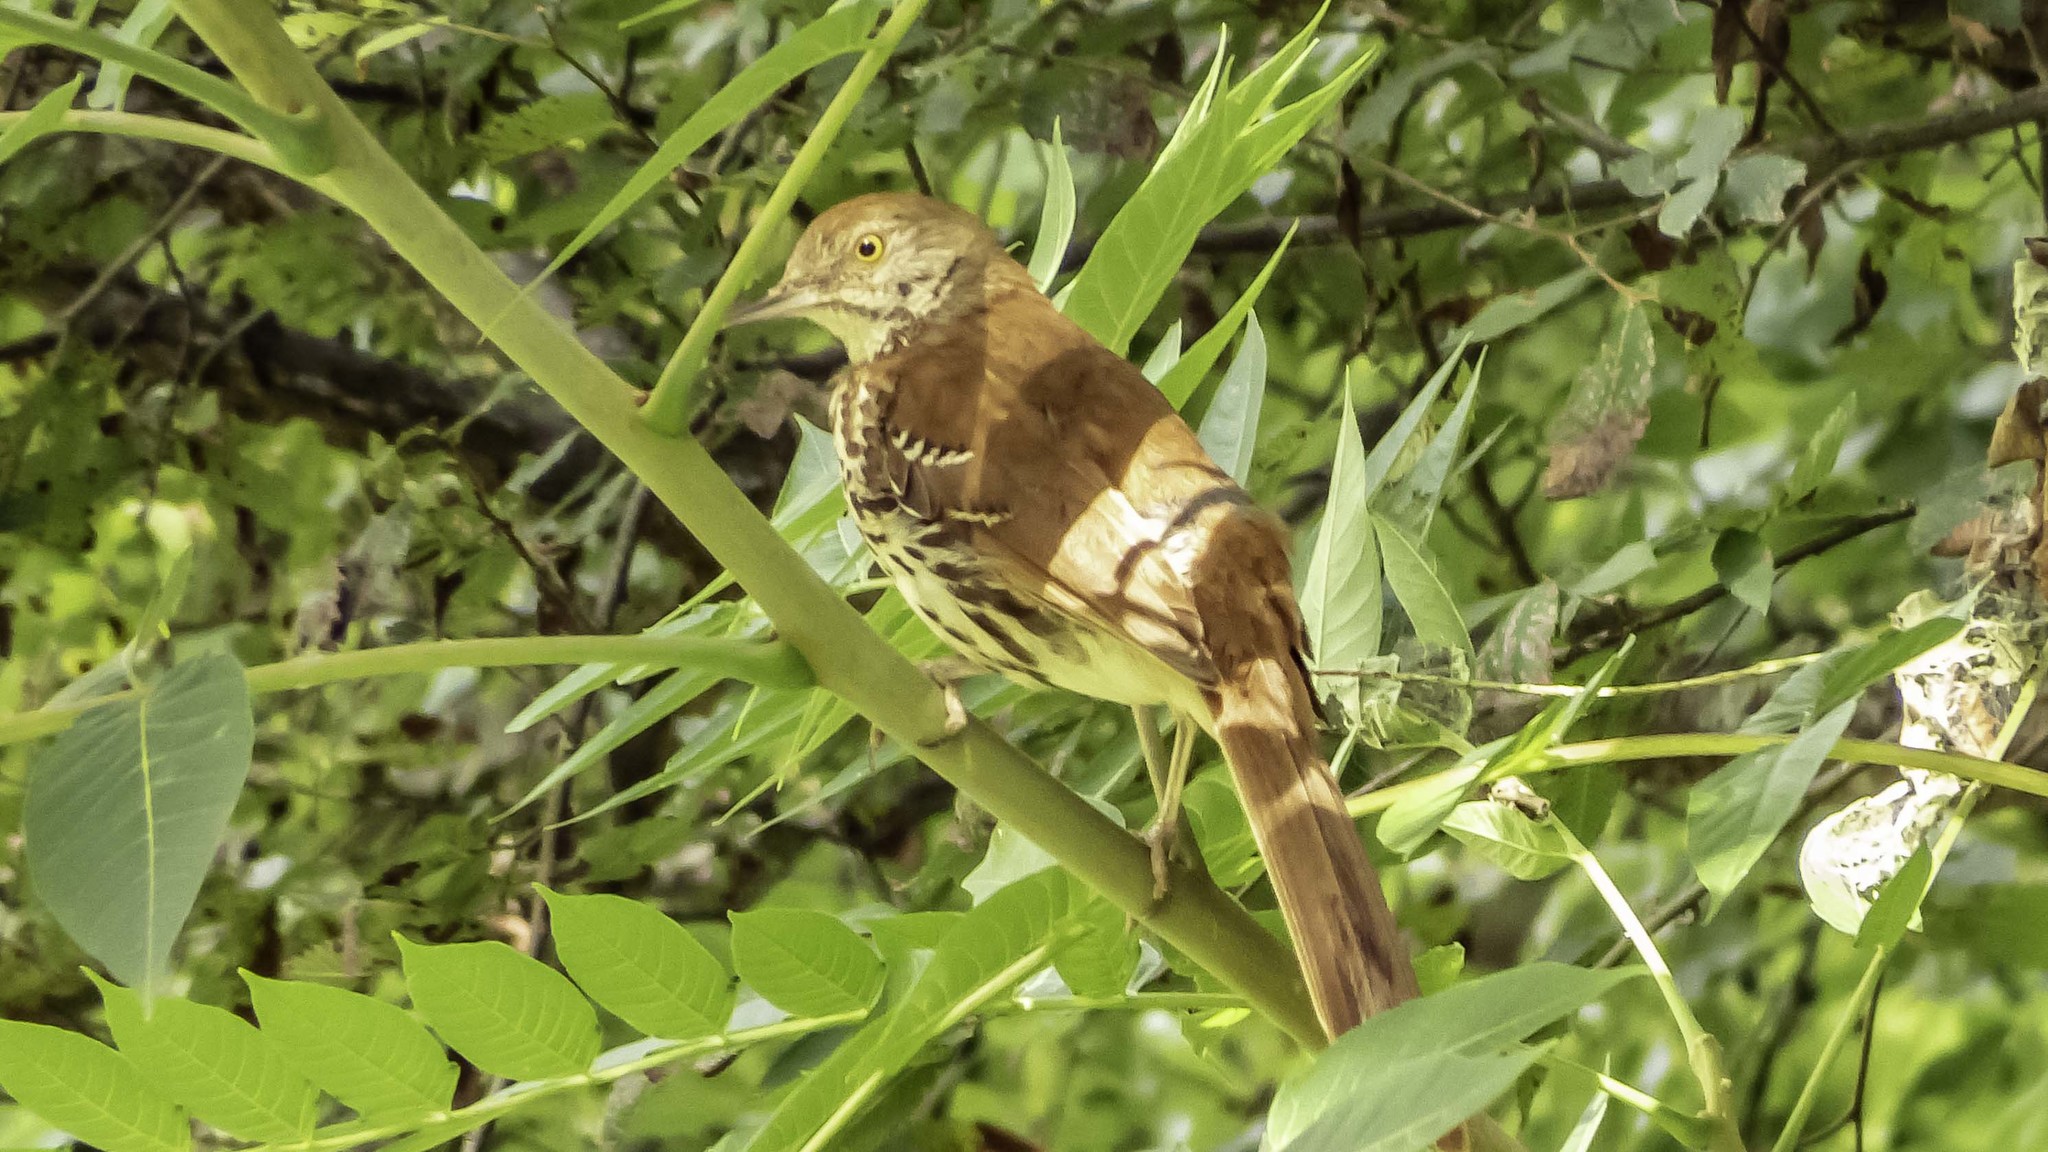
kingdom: Animalia
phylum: Chordata
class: Aves
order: Passeriformes
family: Mimidae
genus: Toxostoma
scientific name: Toxostoma rufum
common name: Brown thrasher
